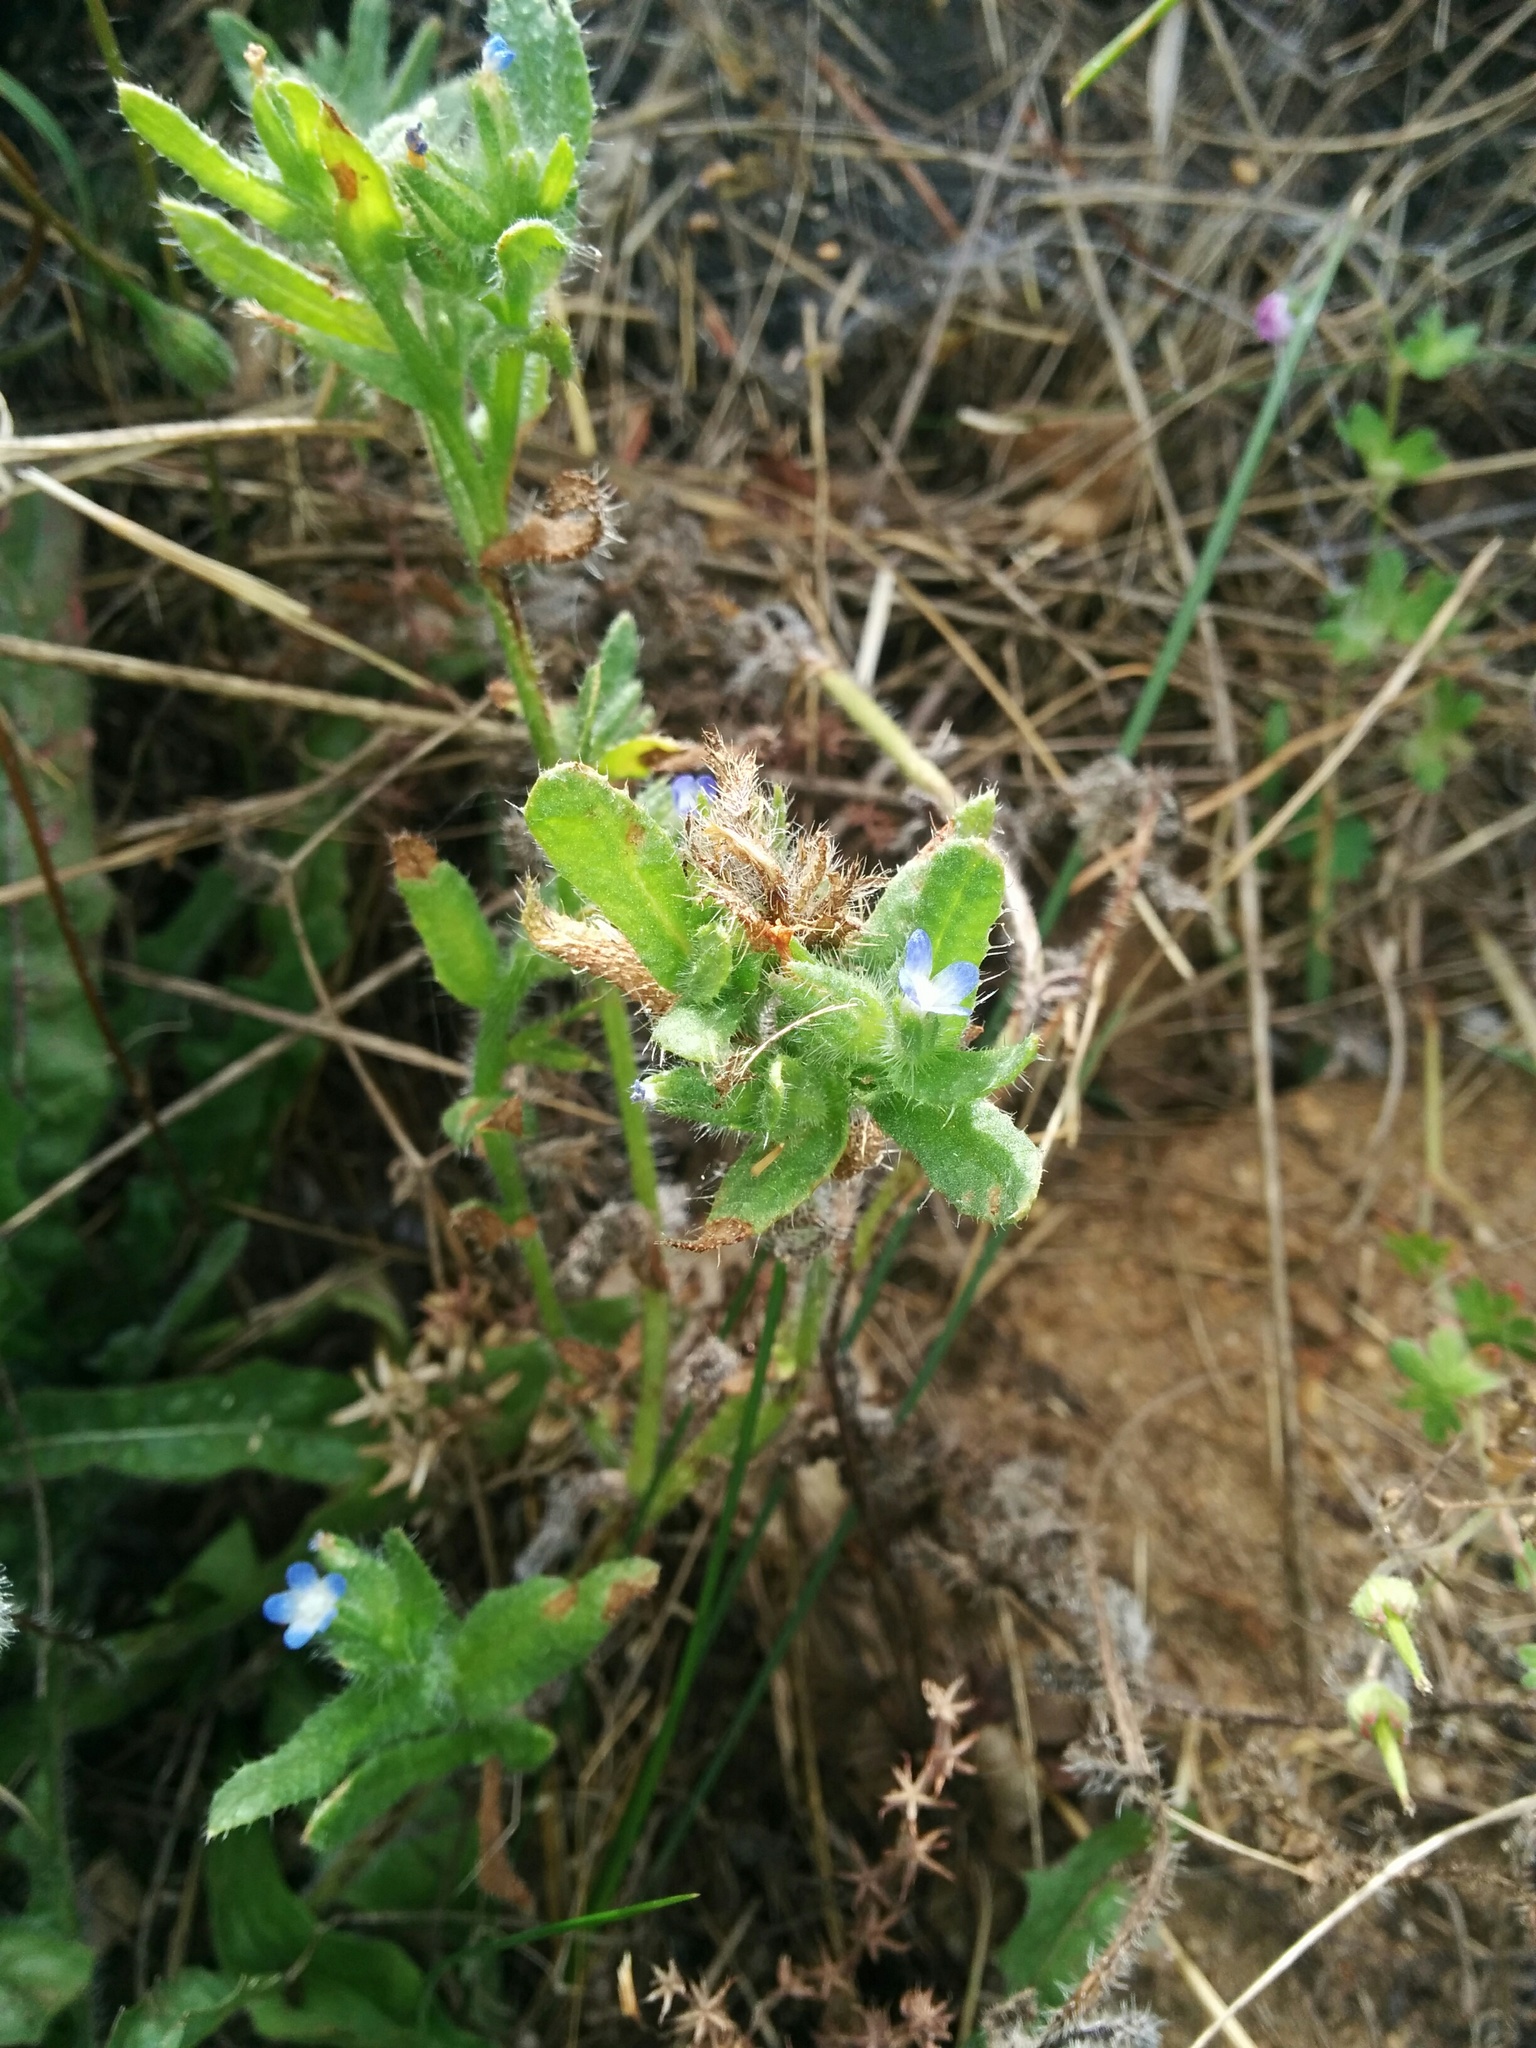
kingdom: Plantae
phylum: Tracheophyta
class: Magnoliopsida
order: Boraginales
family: Boraginaceae
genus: Lycopsis
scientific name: Lycopsis arvensis
